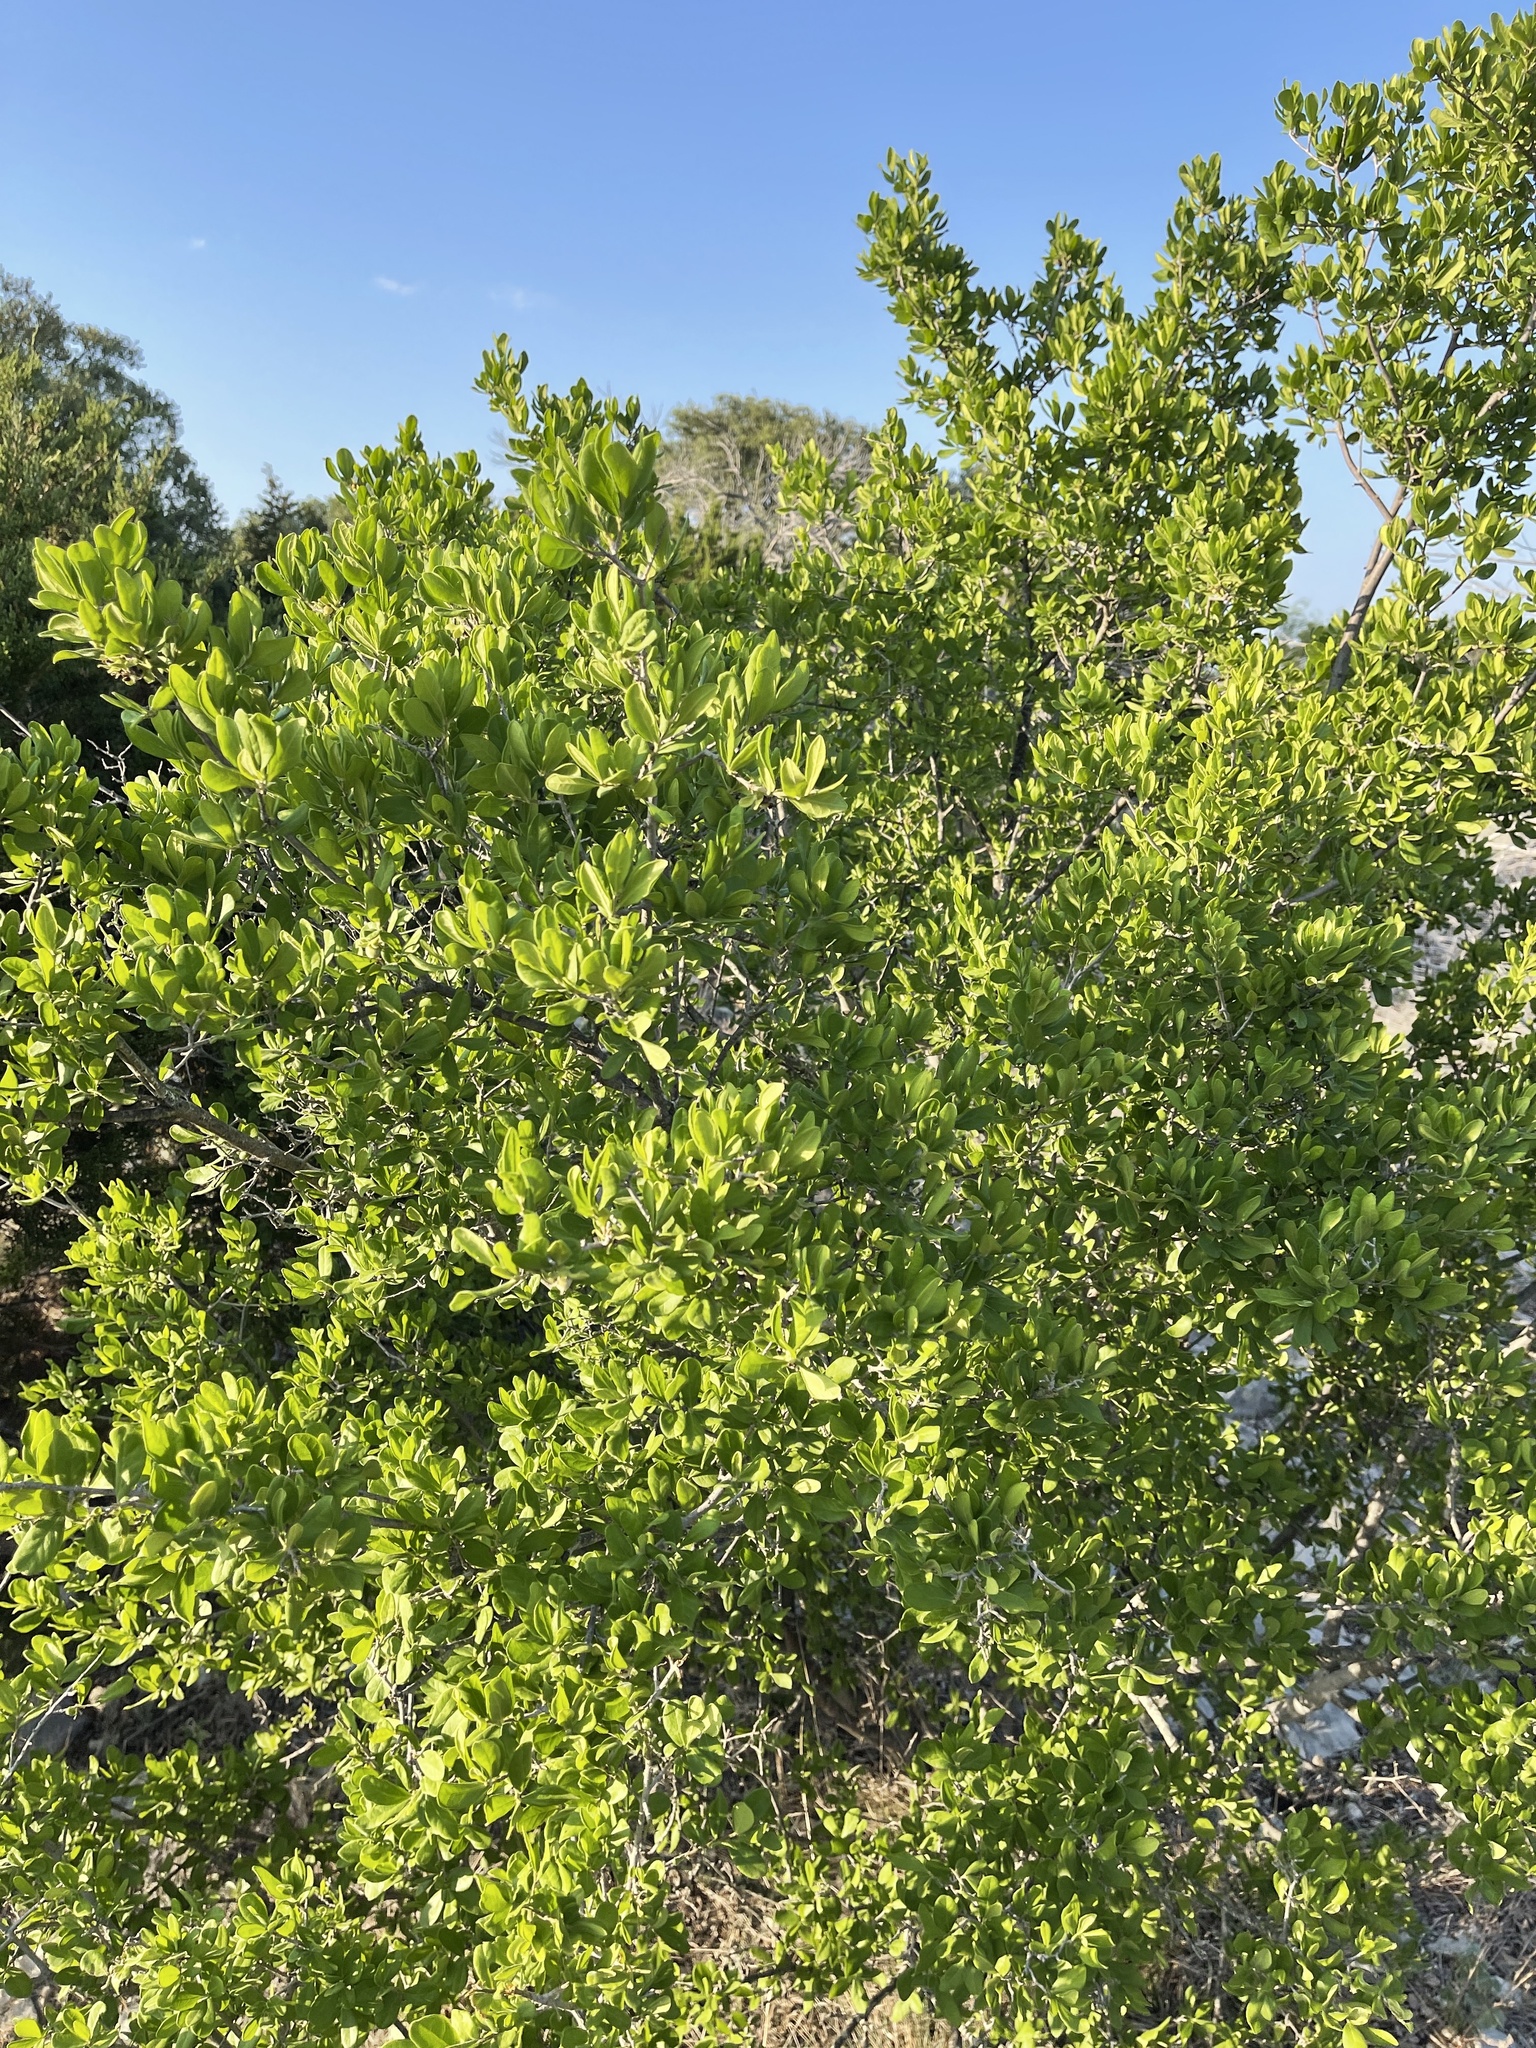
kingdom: Plantae
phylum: Tracheophyta
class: Magnoliopsida
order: Ericales
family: Ebenaceae
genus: Diospyros
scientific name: Diospyros texana
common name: Texas persimmon
